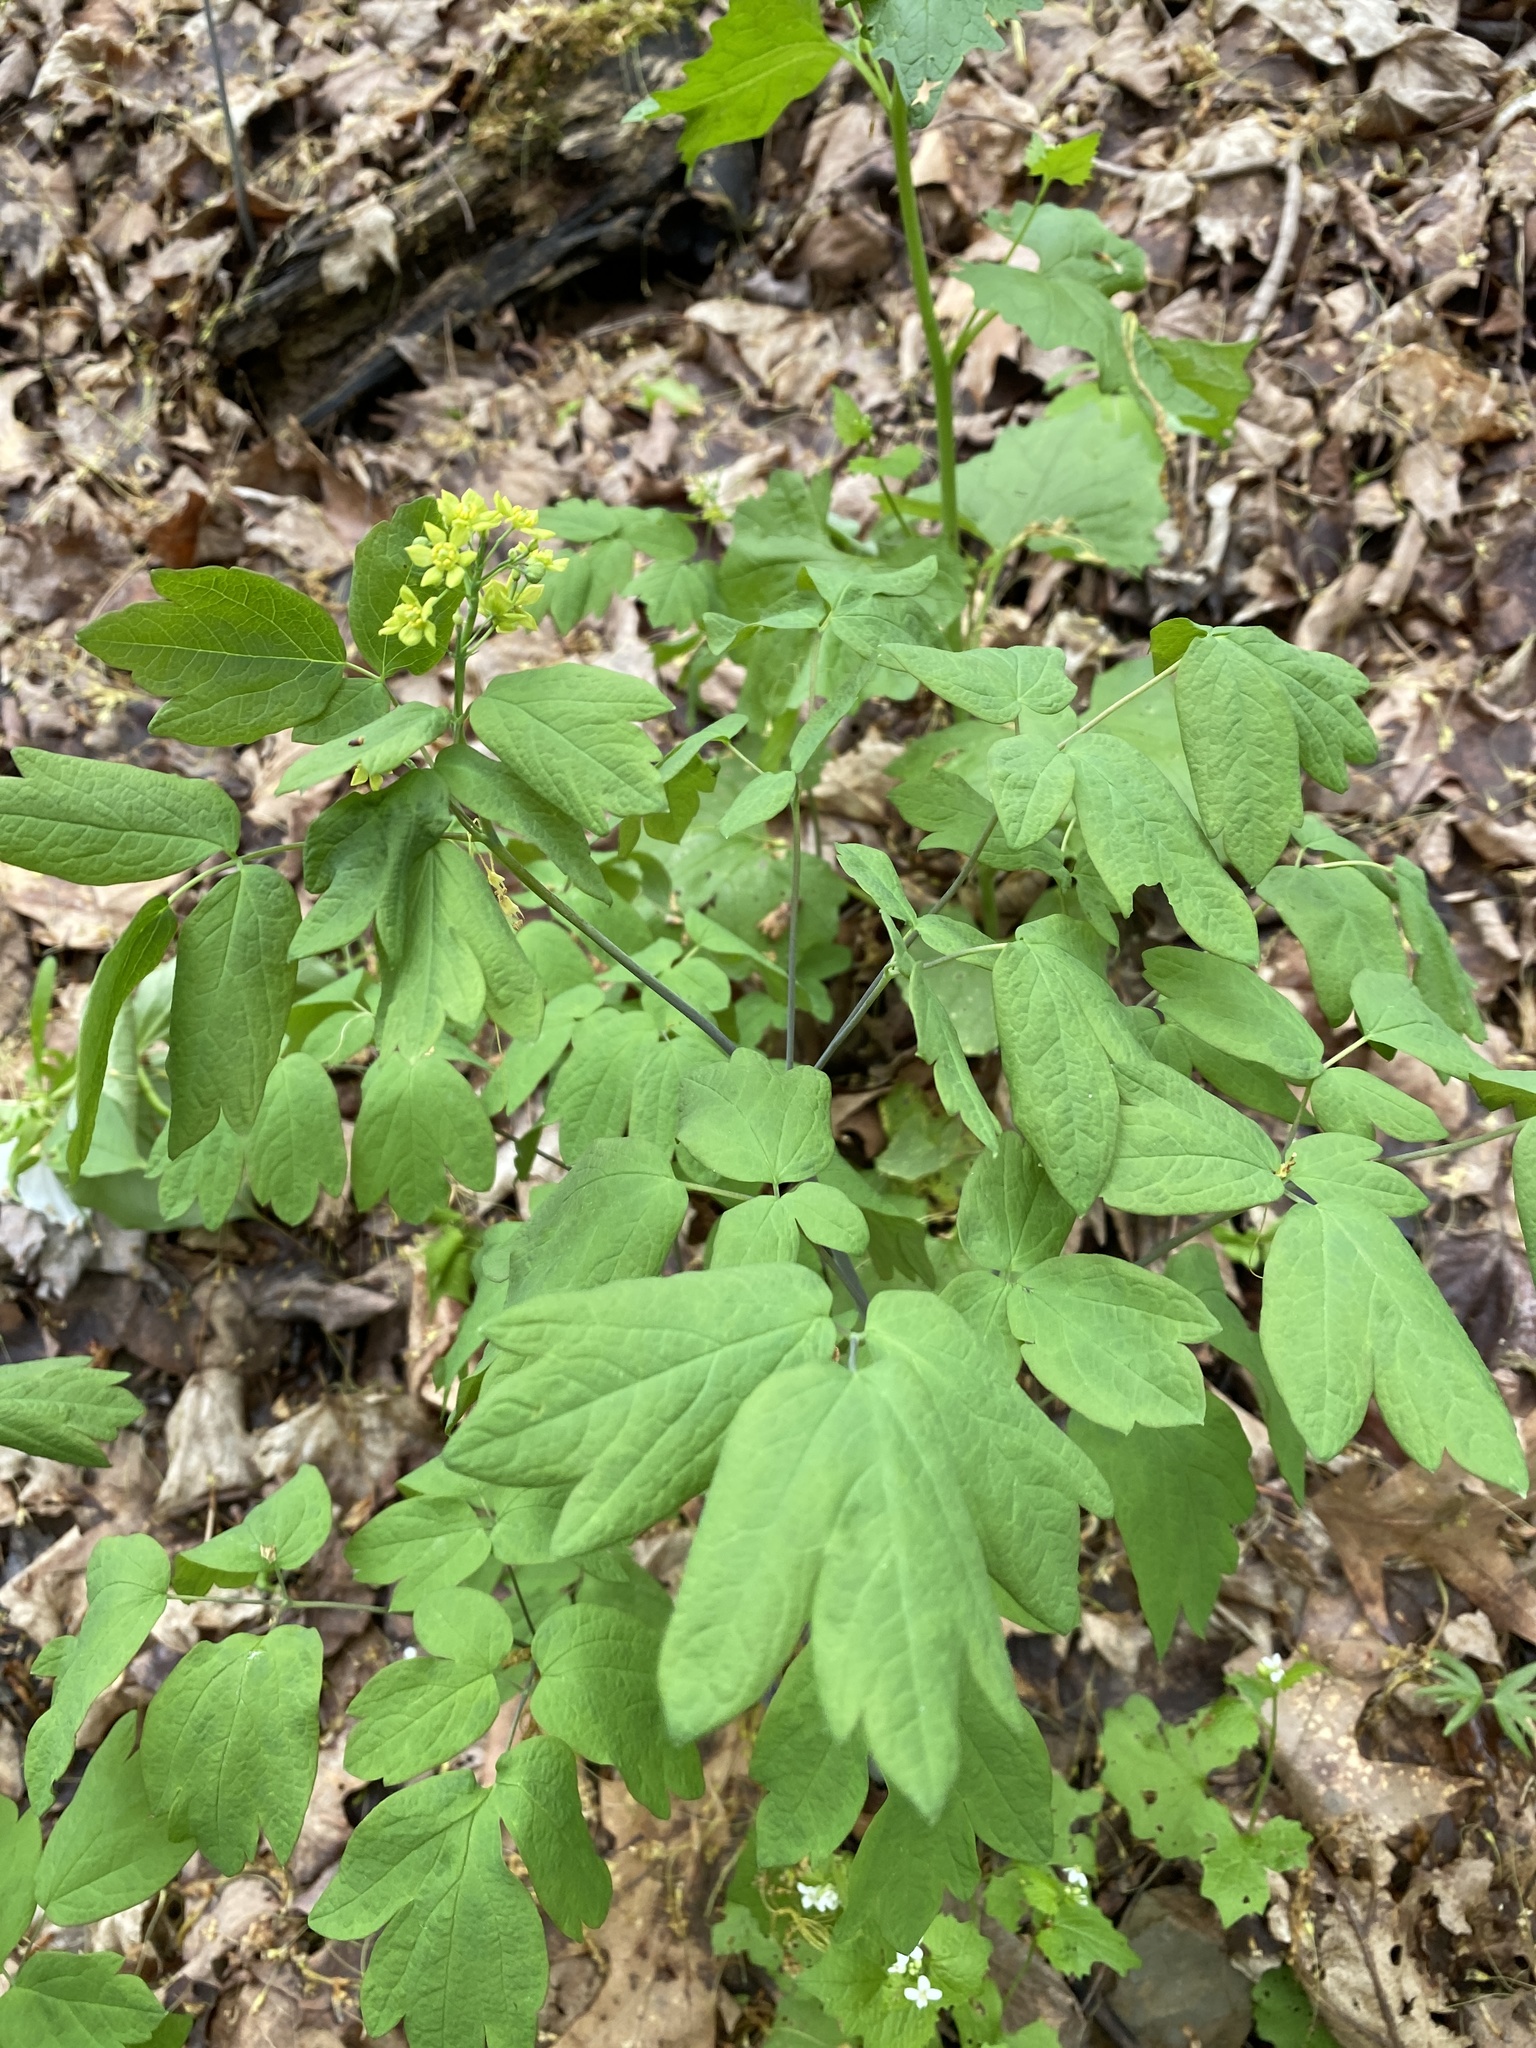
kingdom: Plantae
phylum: Tracheophyta
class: Magnoliopsida
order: Ranunculales
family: Berberidaceae
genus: Caulophyllum
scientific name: Caulophyllum thalictroides
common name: Blue cohosh
